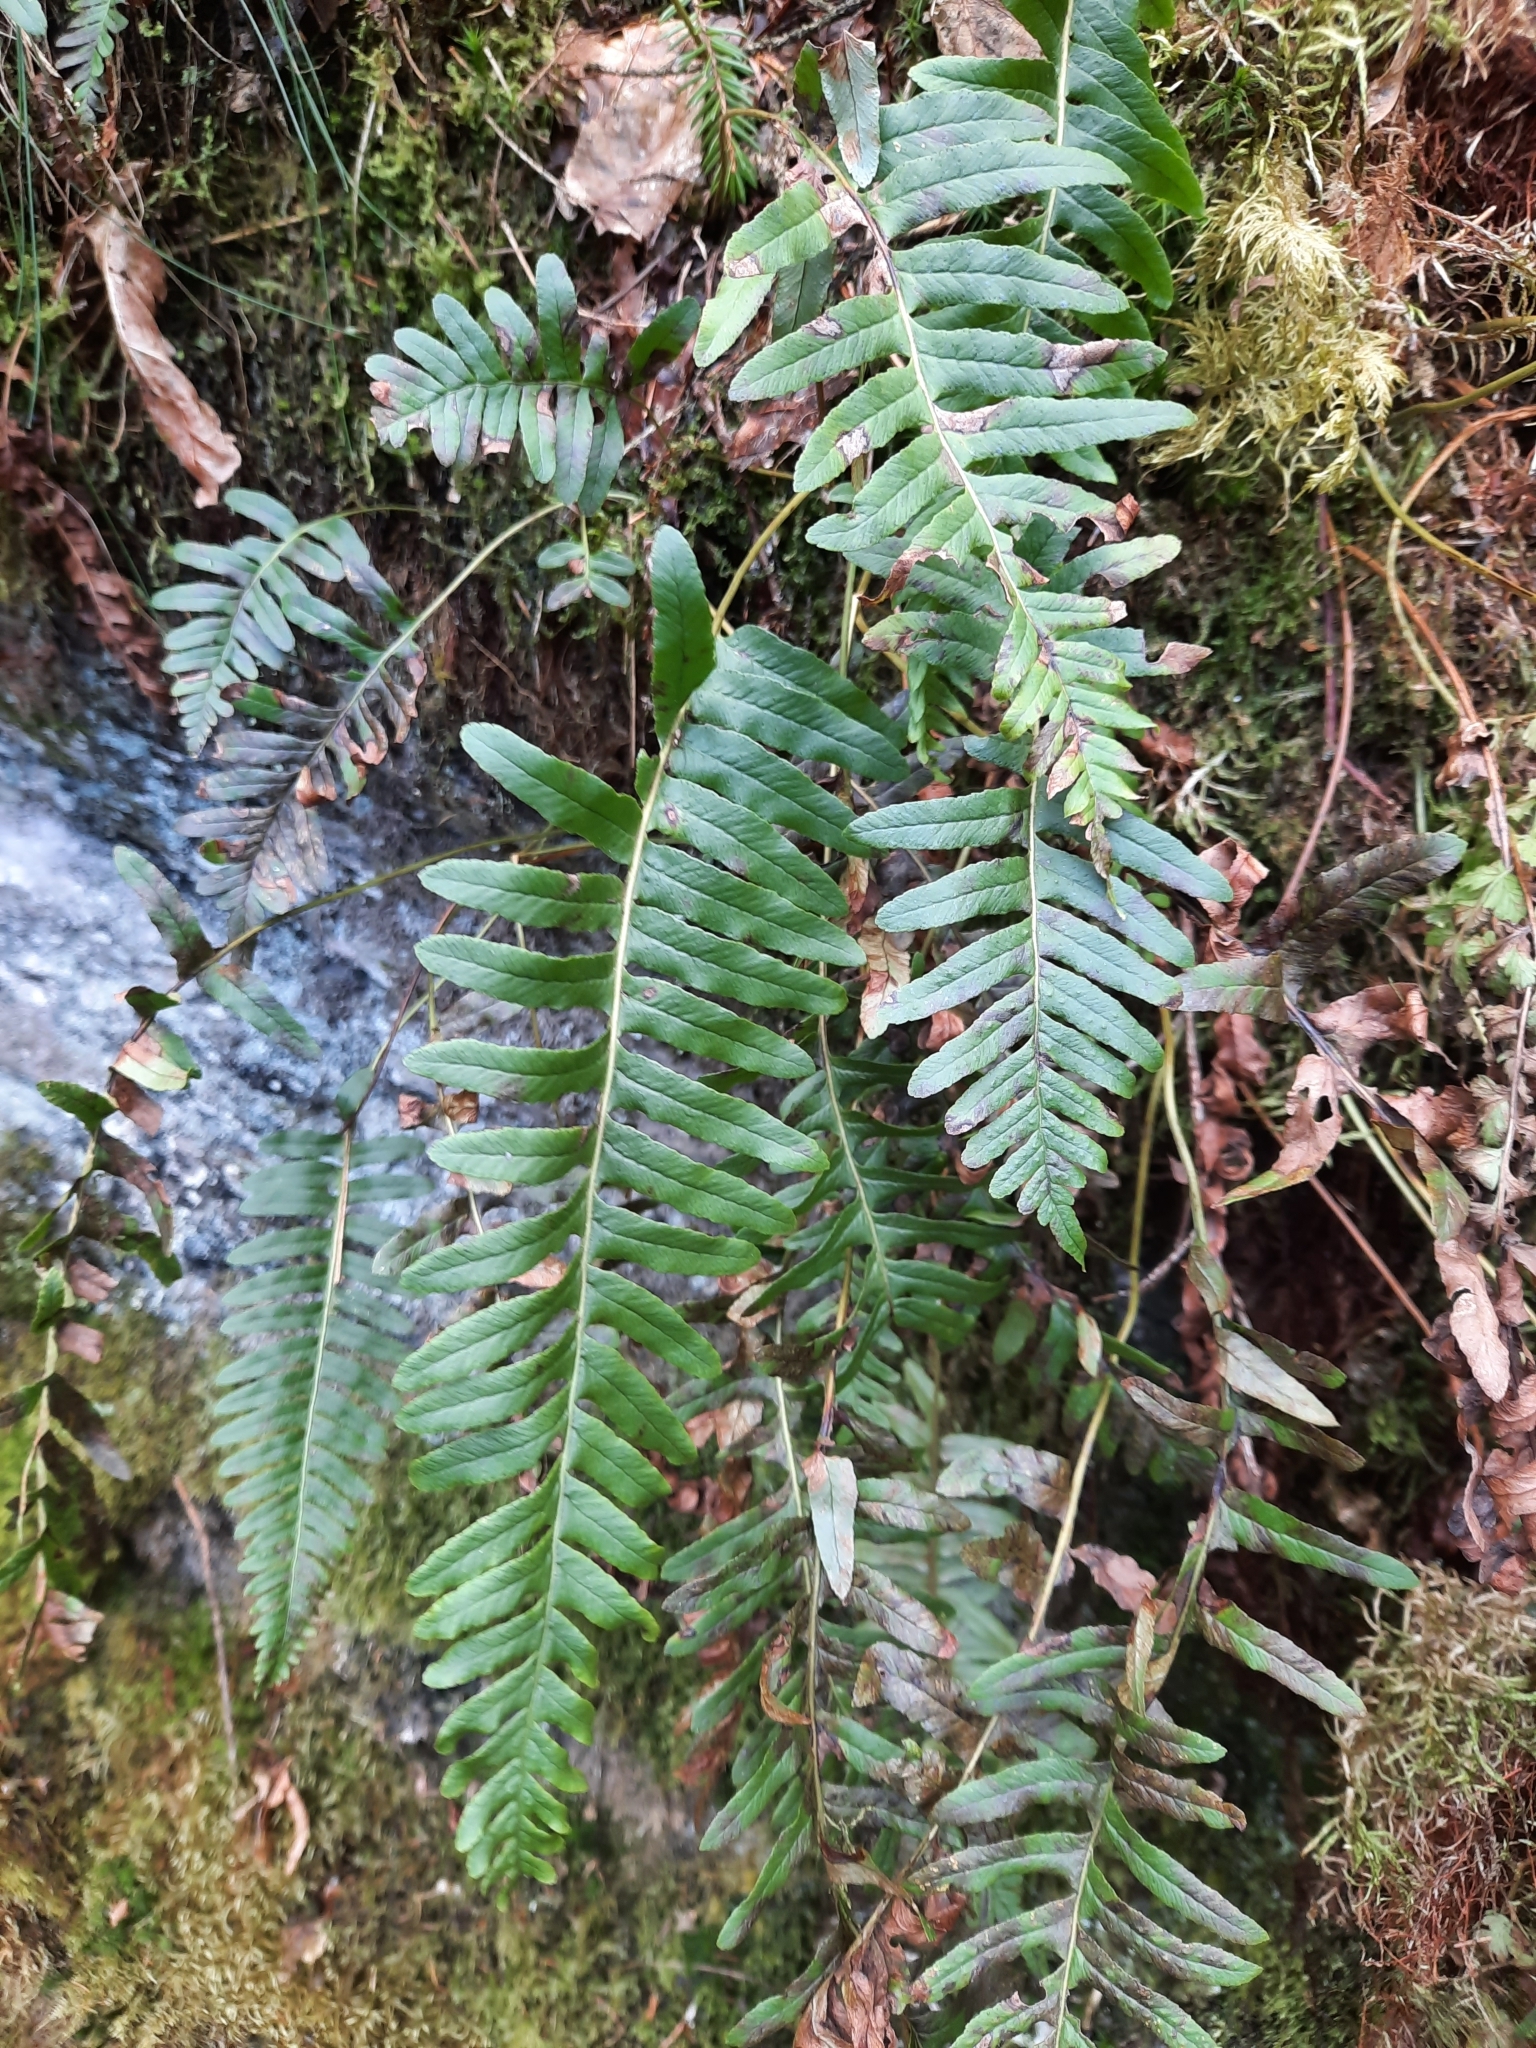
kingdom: Plantae
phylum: Tracheophyta
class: Polypodiopsida
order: Polypodiales
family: Polypodiaceae
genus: Polypodium
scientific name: Polypodium
